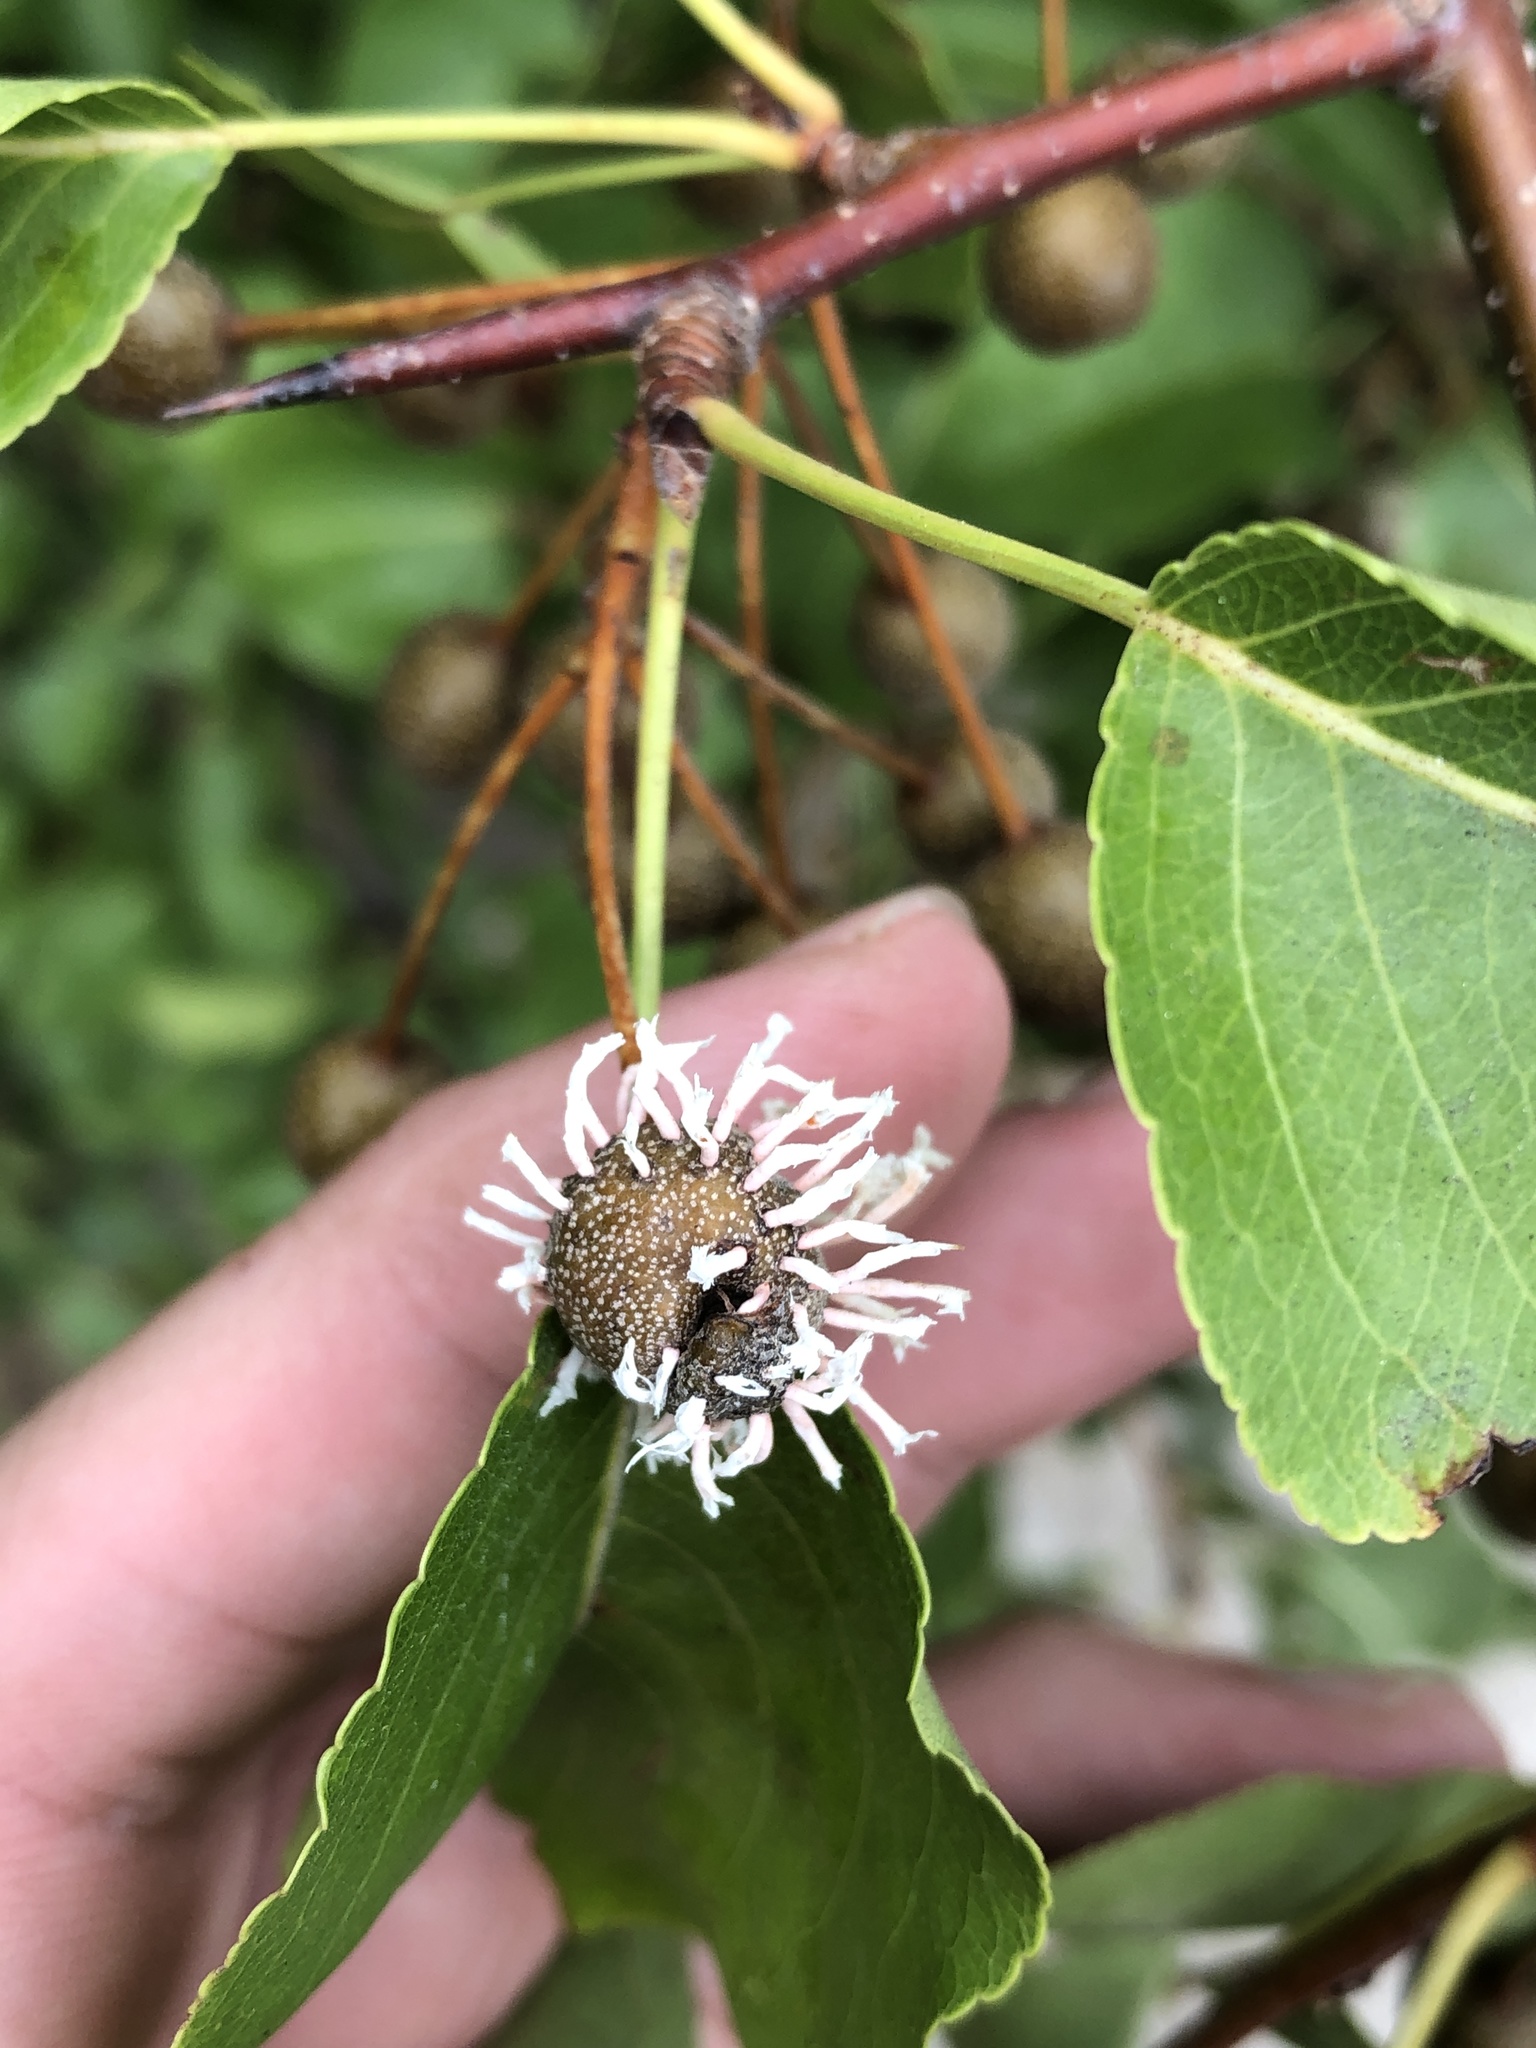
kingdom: Fungi
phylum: Basidiomycota
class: Pucciniomycetes
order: Pucciniales
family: Gymnosporangiaceae
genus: Gymnosporangium
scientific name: Gymnosporangium clavipes
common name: Quince rust
